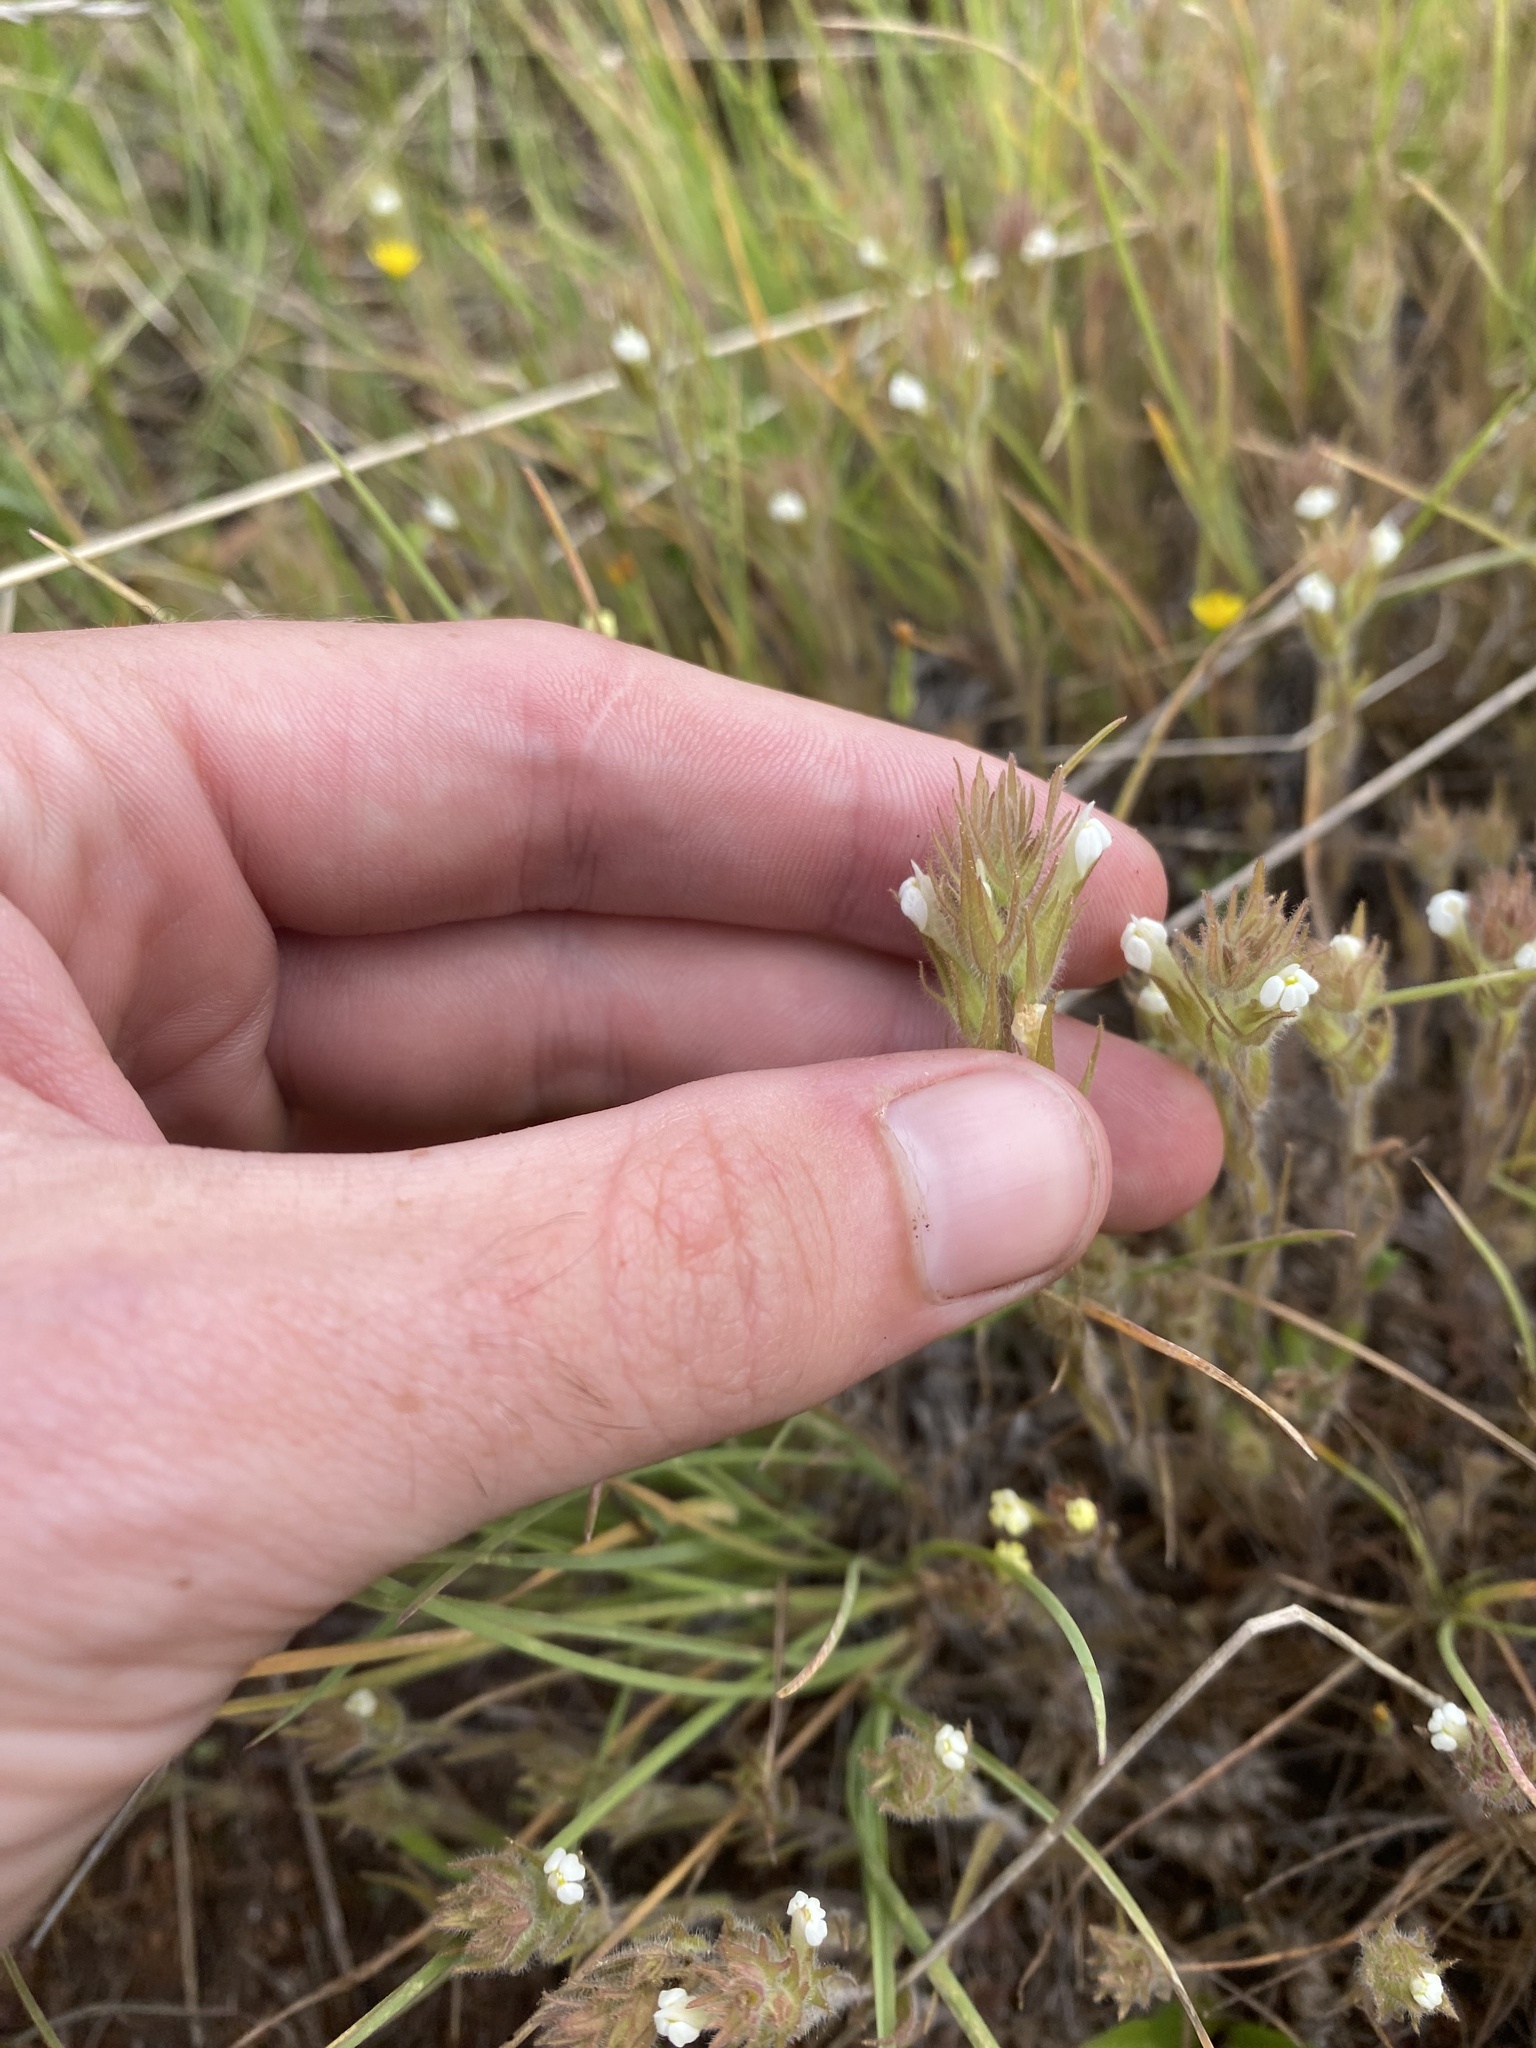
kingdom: Plantae
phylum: Tracheophyta
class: Magnoliopsida
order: Lamiales
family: Orobanchaceae
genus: Castilleja
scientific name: Castilleja tenuis
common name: Hairy indian paintbrush
